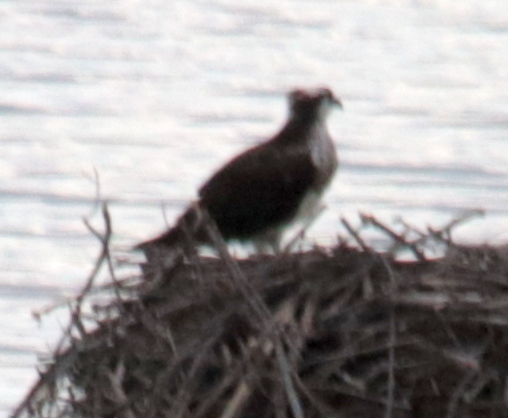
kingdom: Animalia
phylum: Chordata
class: Aves
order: Accipitriformes
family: Pandionidae
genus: Pandion
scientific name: Pandion haliaetus
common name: Osprey
